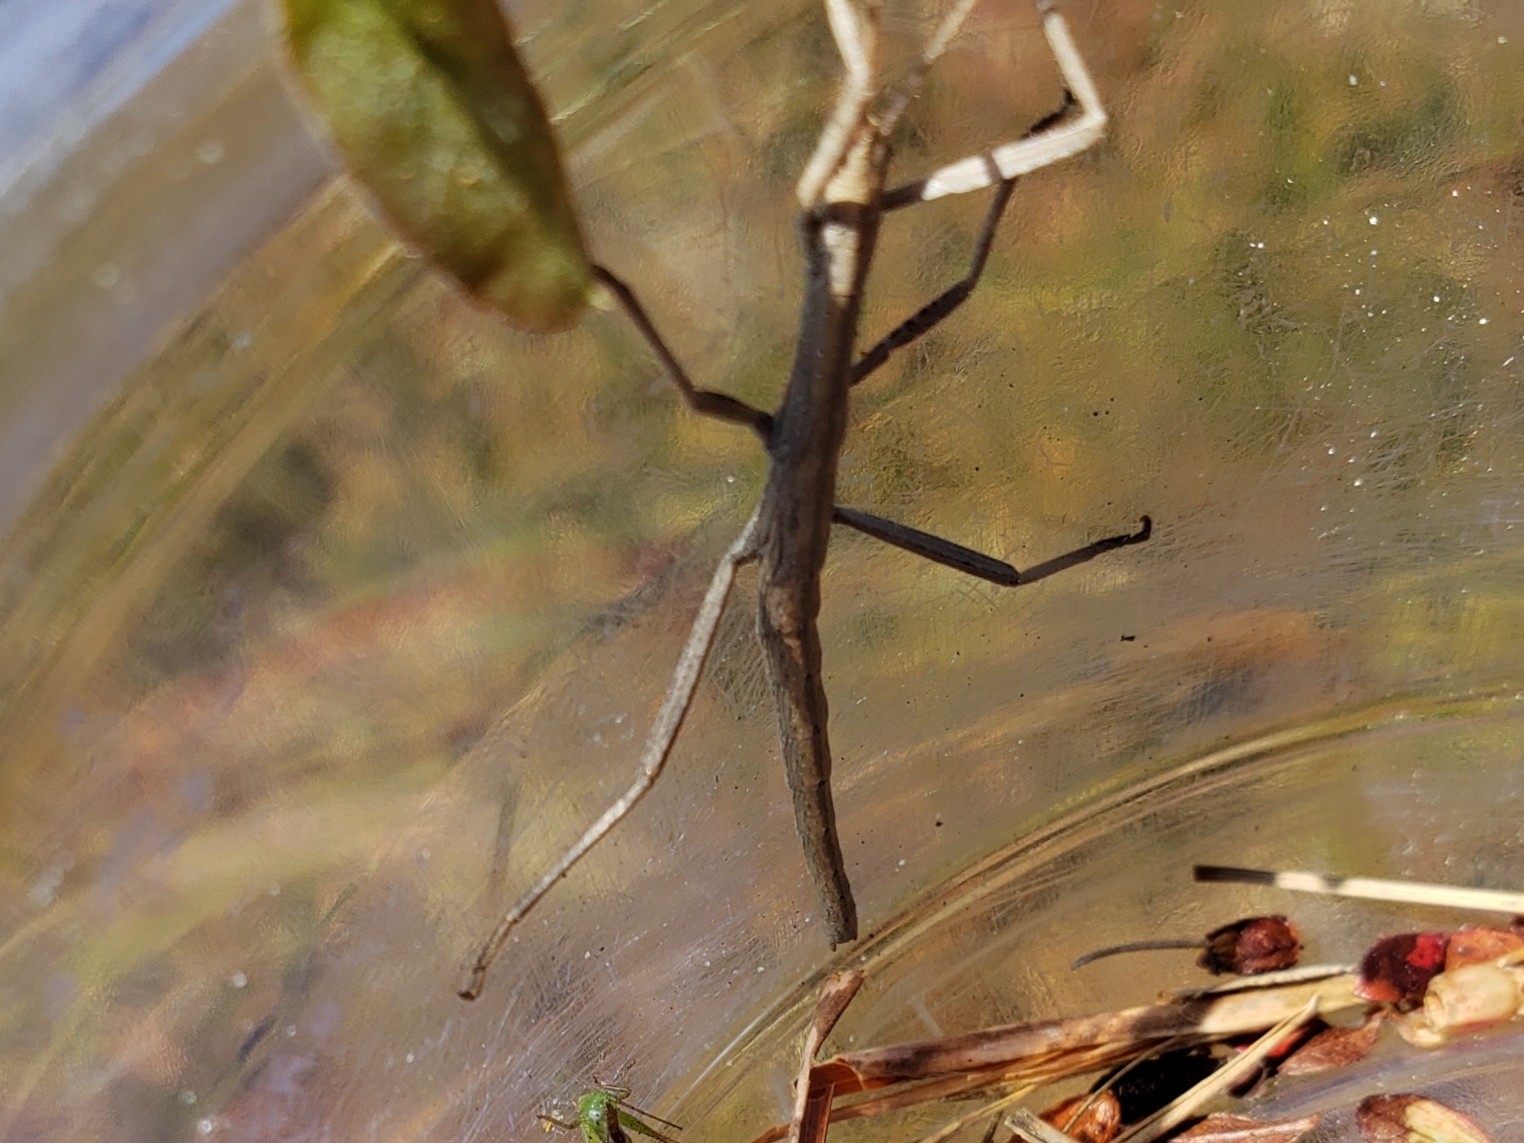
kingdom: Animalia
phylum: Arthropoda
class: Insecta
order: Phasmida
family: Pseudophasmatidae
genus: Anisomorpha
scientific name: Anisomorpha buprestoides
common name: Florida stick insect
